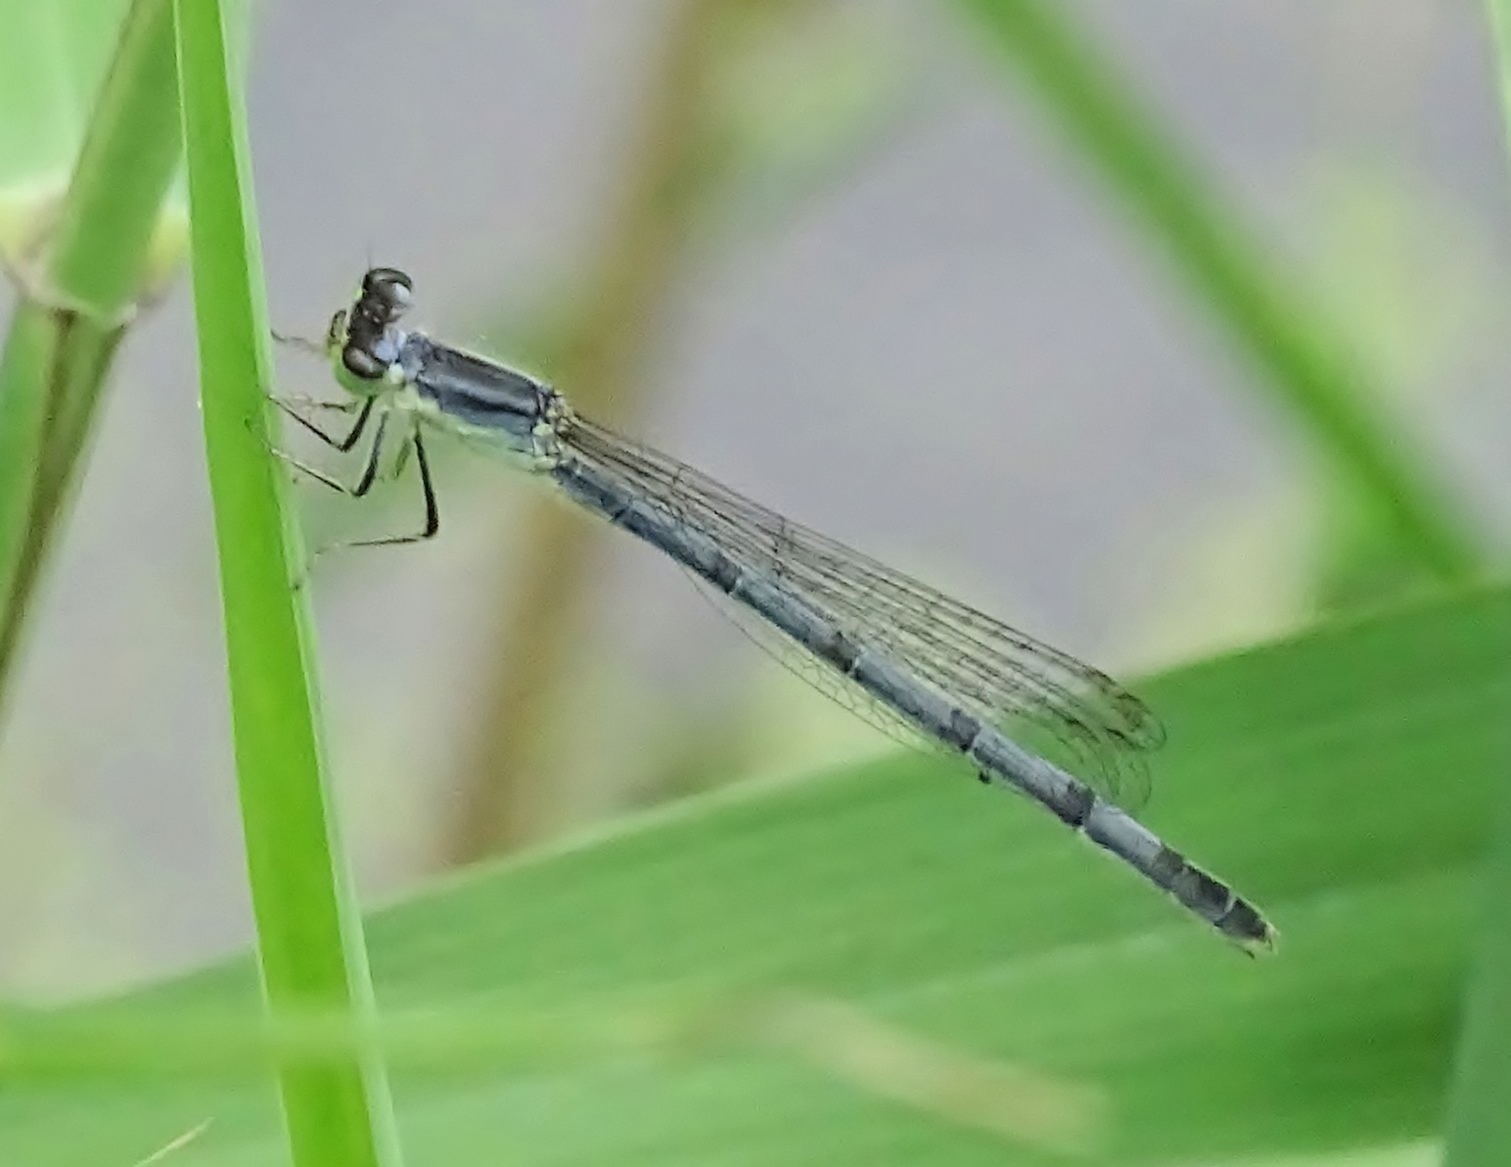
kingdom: Animalia
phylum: Arthropoda
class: Insecta
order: Odonata
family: Coenagrionidae
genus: Ischnura
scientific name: Ischnura verticalis
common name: Eastern forktail
